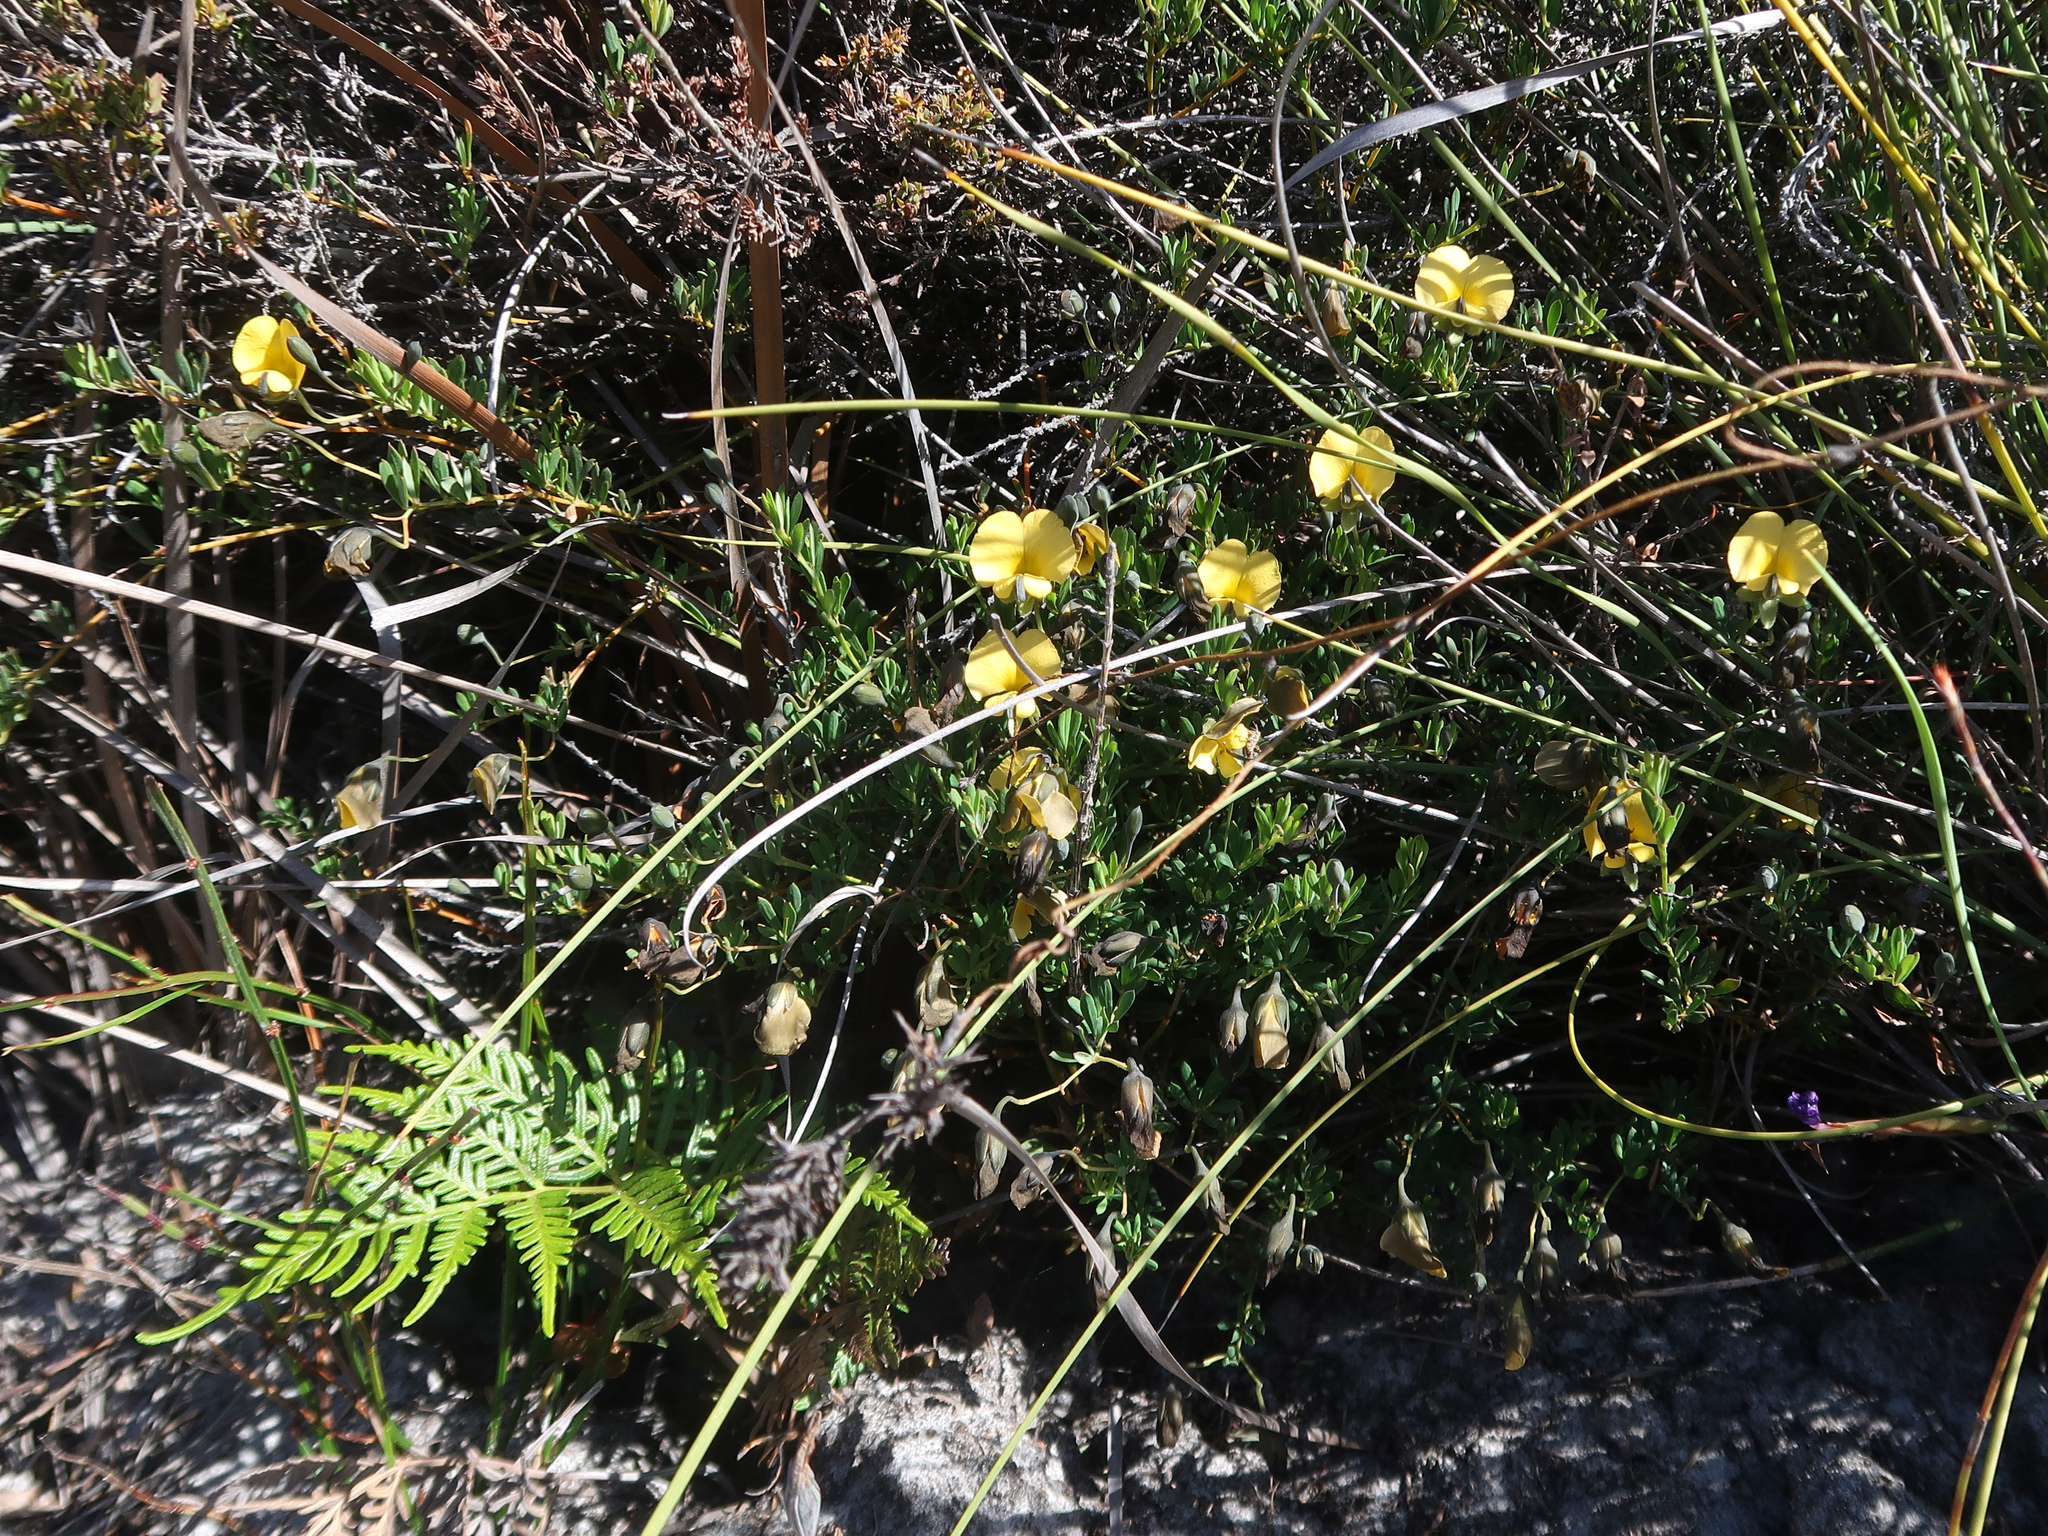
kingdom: Plantae
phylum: Tracheophyta
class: Magnoliopsida
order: Fabales
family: Fabaceae
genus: Gompholobium
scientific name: Gompholobium huegelii
